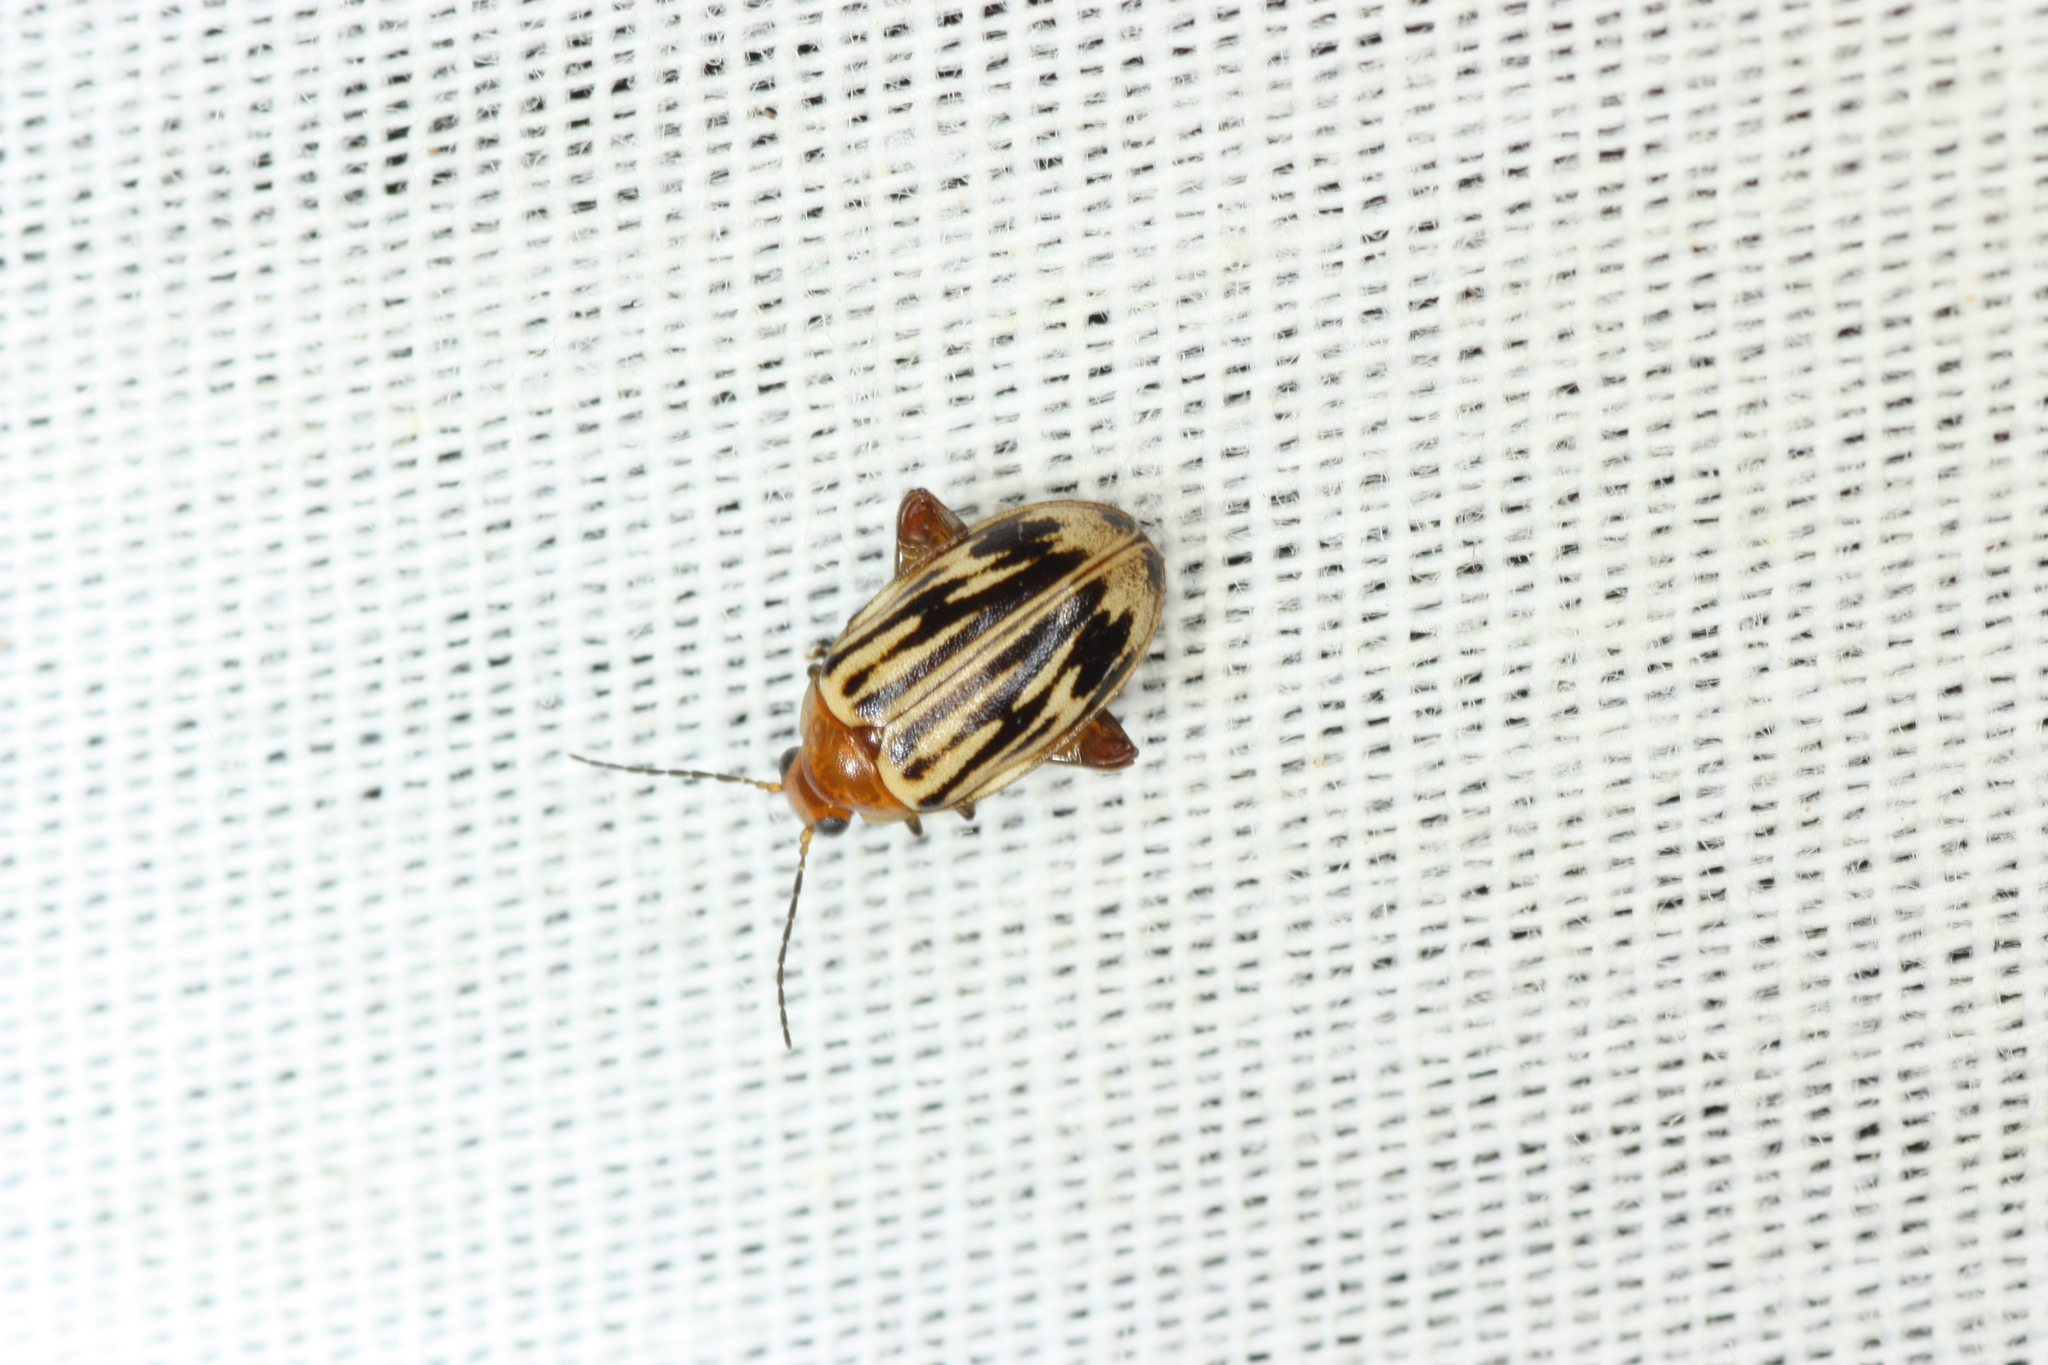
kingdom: Animalia
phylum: Arthropoda
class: Insecta
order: Coleoptera
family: Scirtidae
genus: Ora
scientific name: Ora troberti
